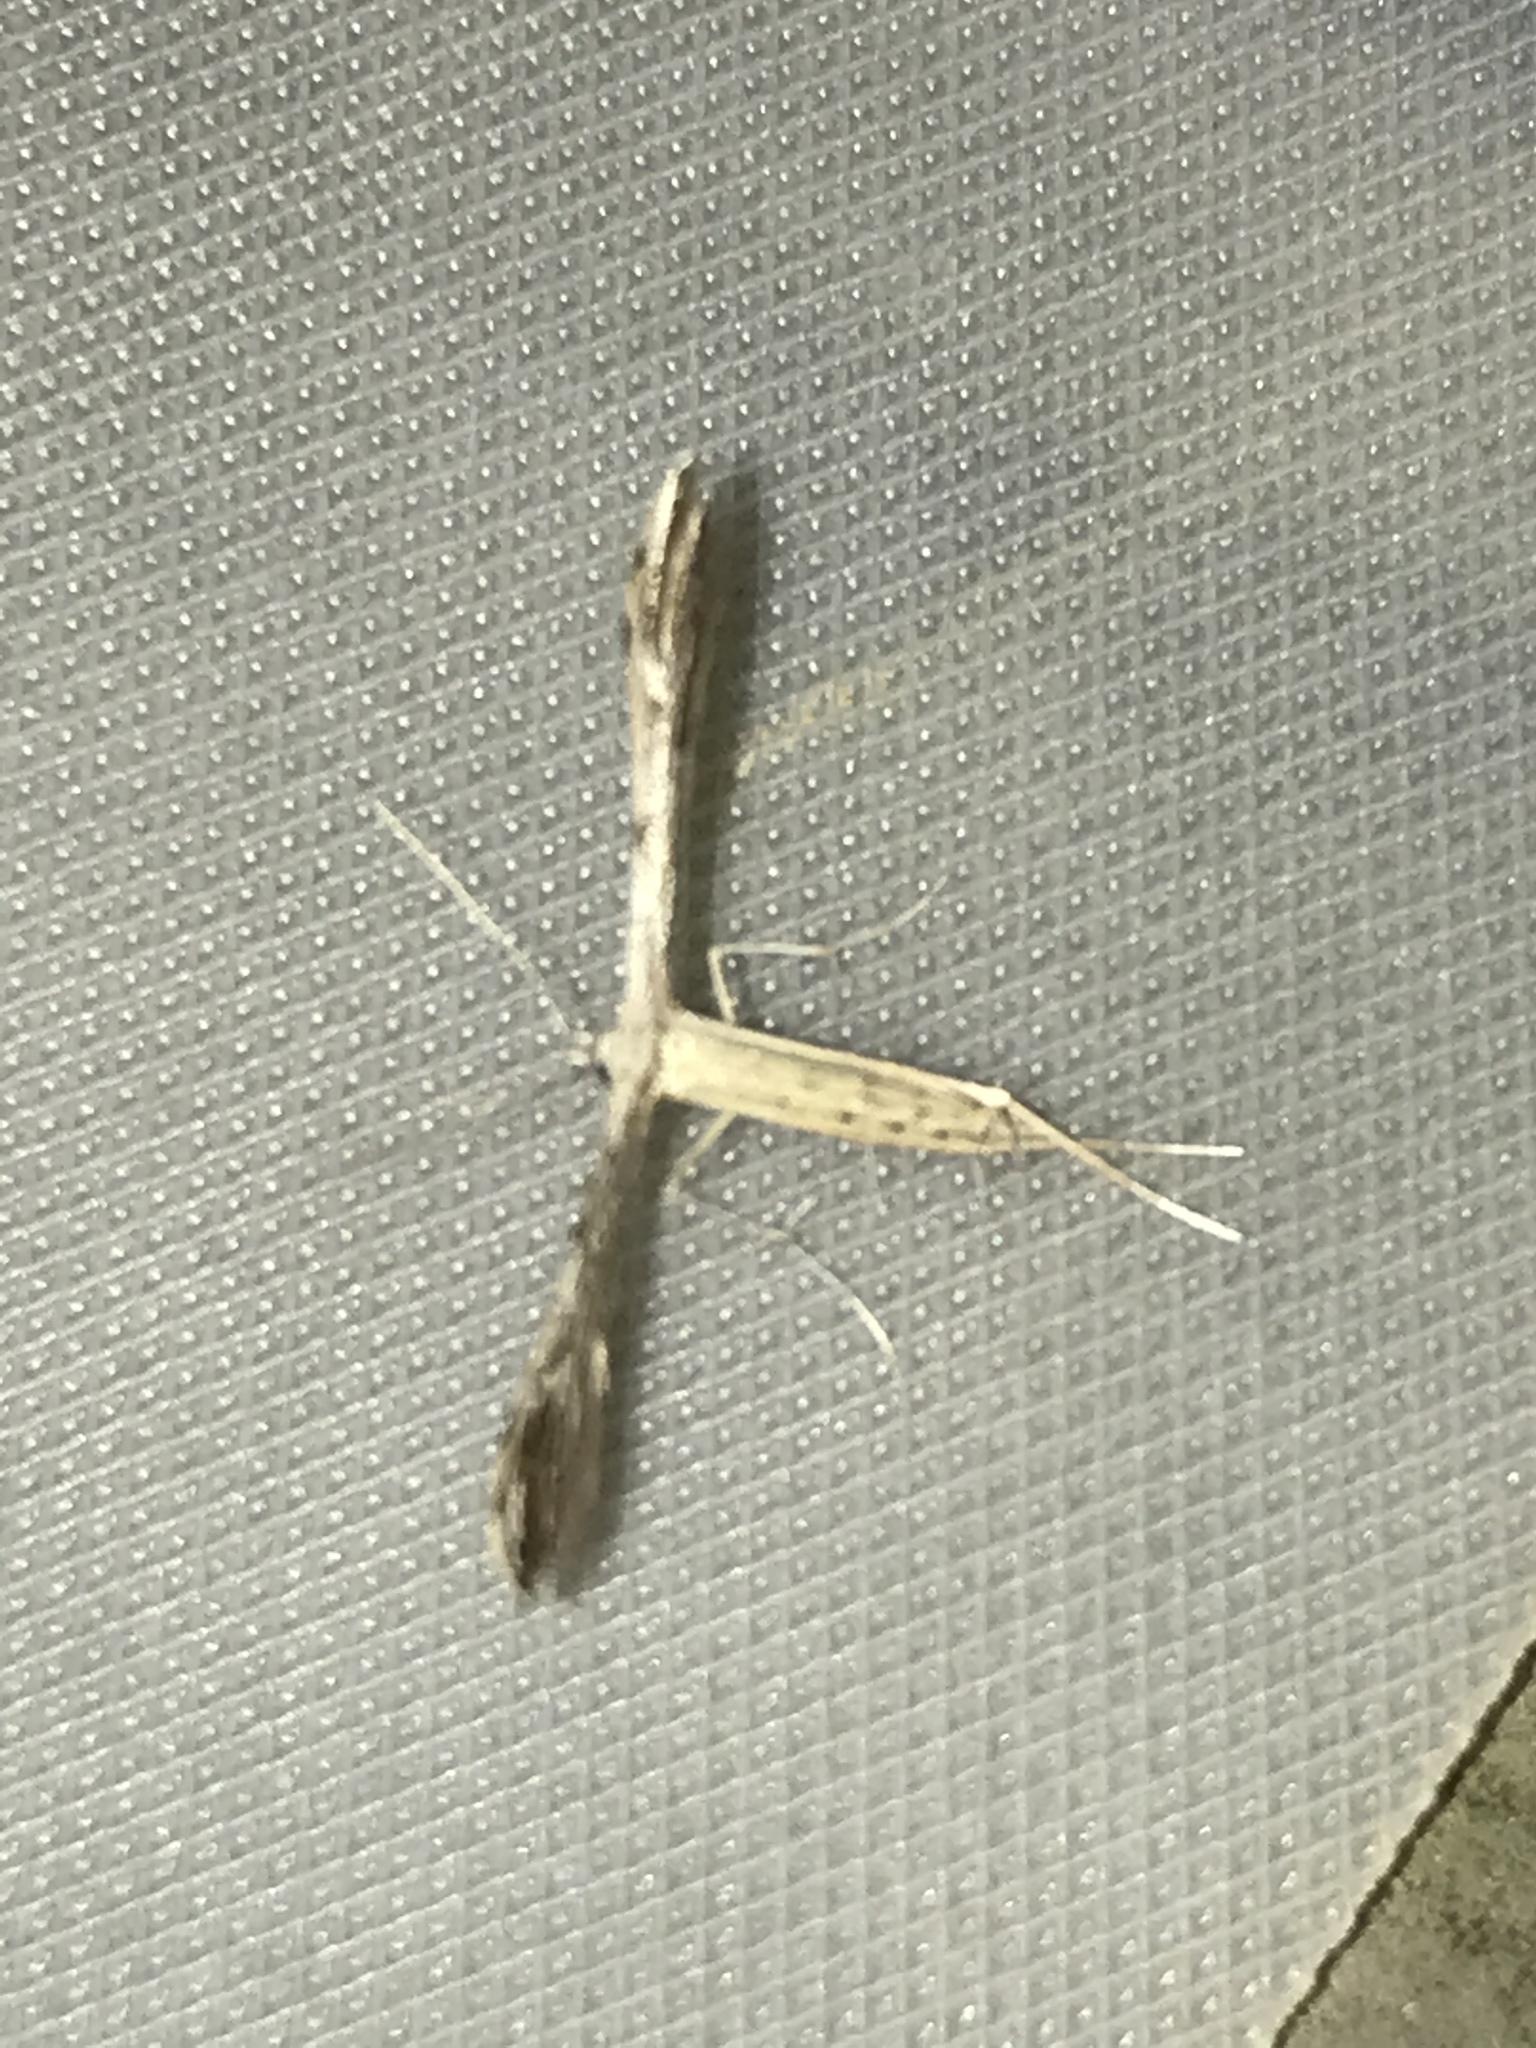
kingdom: Animalia
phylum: Arthropoda
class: Insecta
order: Lepidoptera
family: Pterophoridae
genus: Pselnophorus
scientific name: Pselnophorus belfragei
